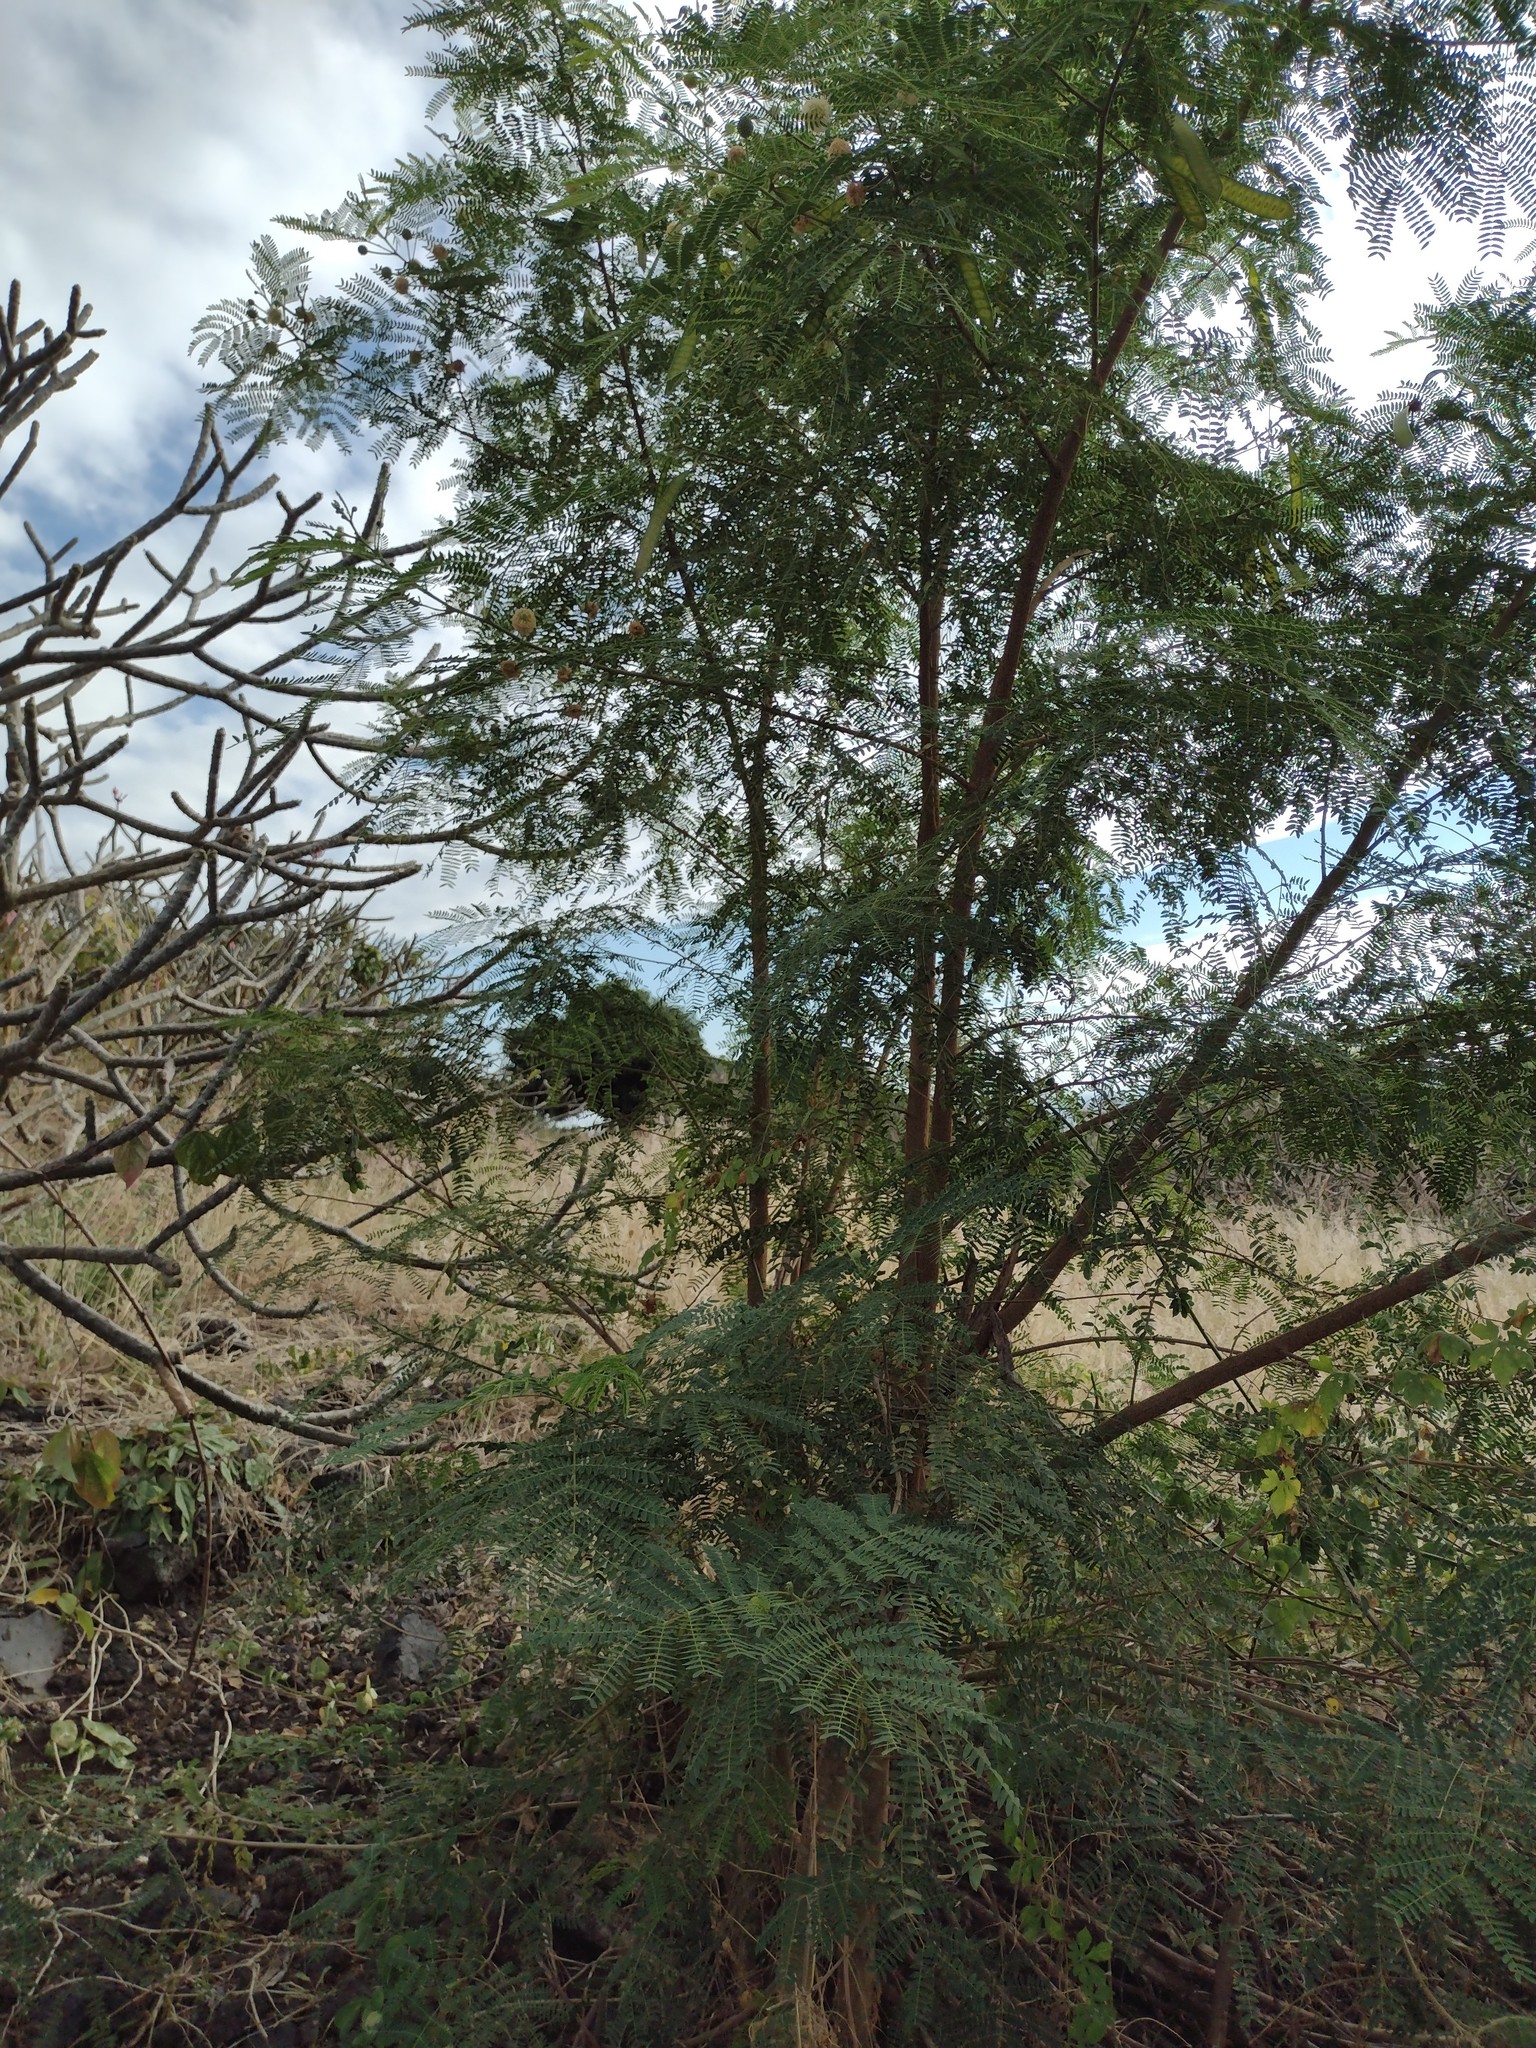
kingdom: Plantae
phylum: Tracheophyta
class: Magnoliopsida
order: Fabales
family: Fabaceae
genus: Leucaena
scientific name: Leucaena leucocephala
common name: White leadtree
